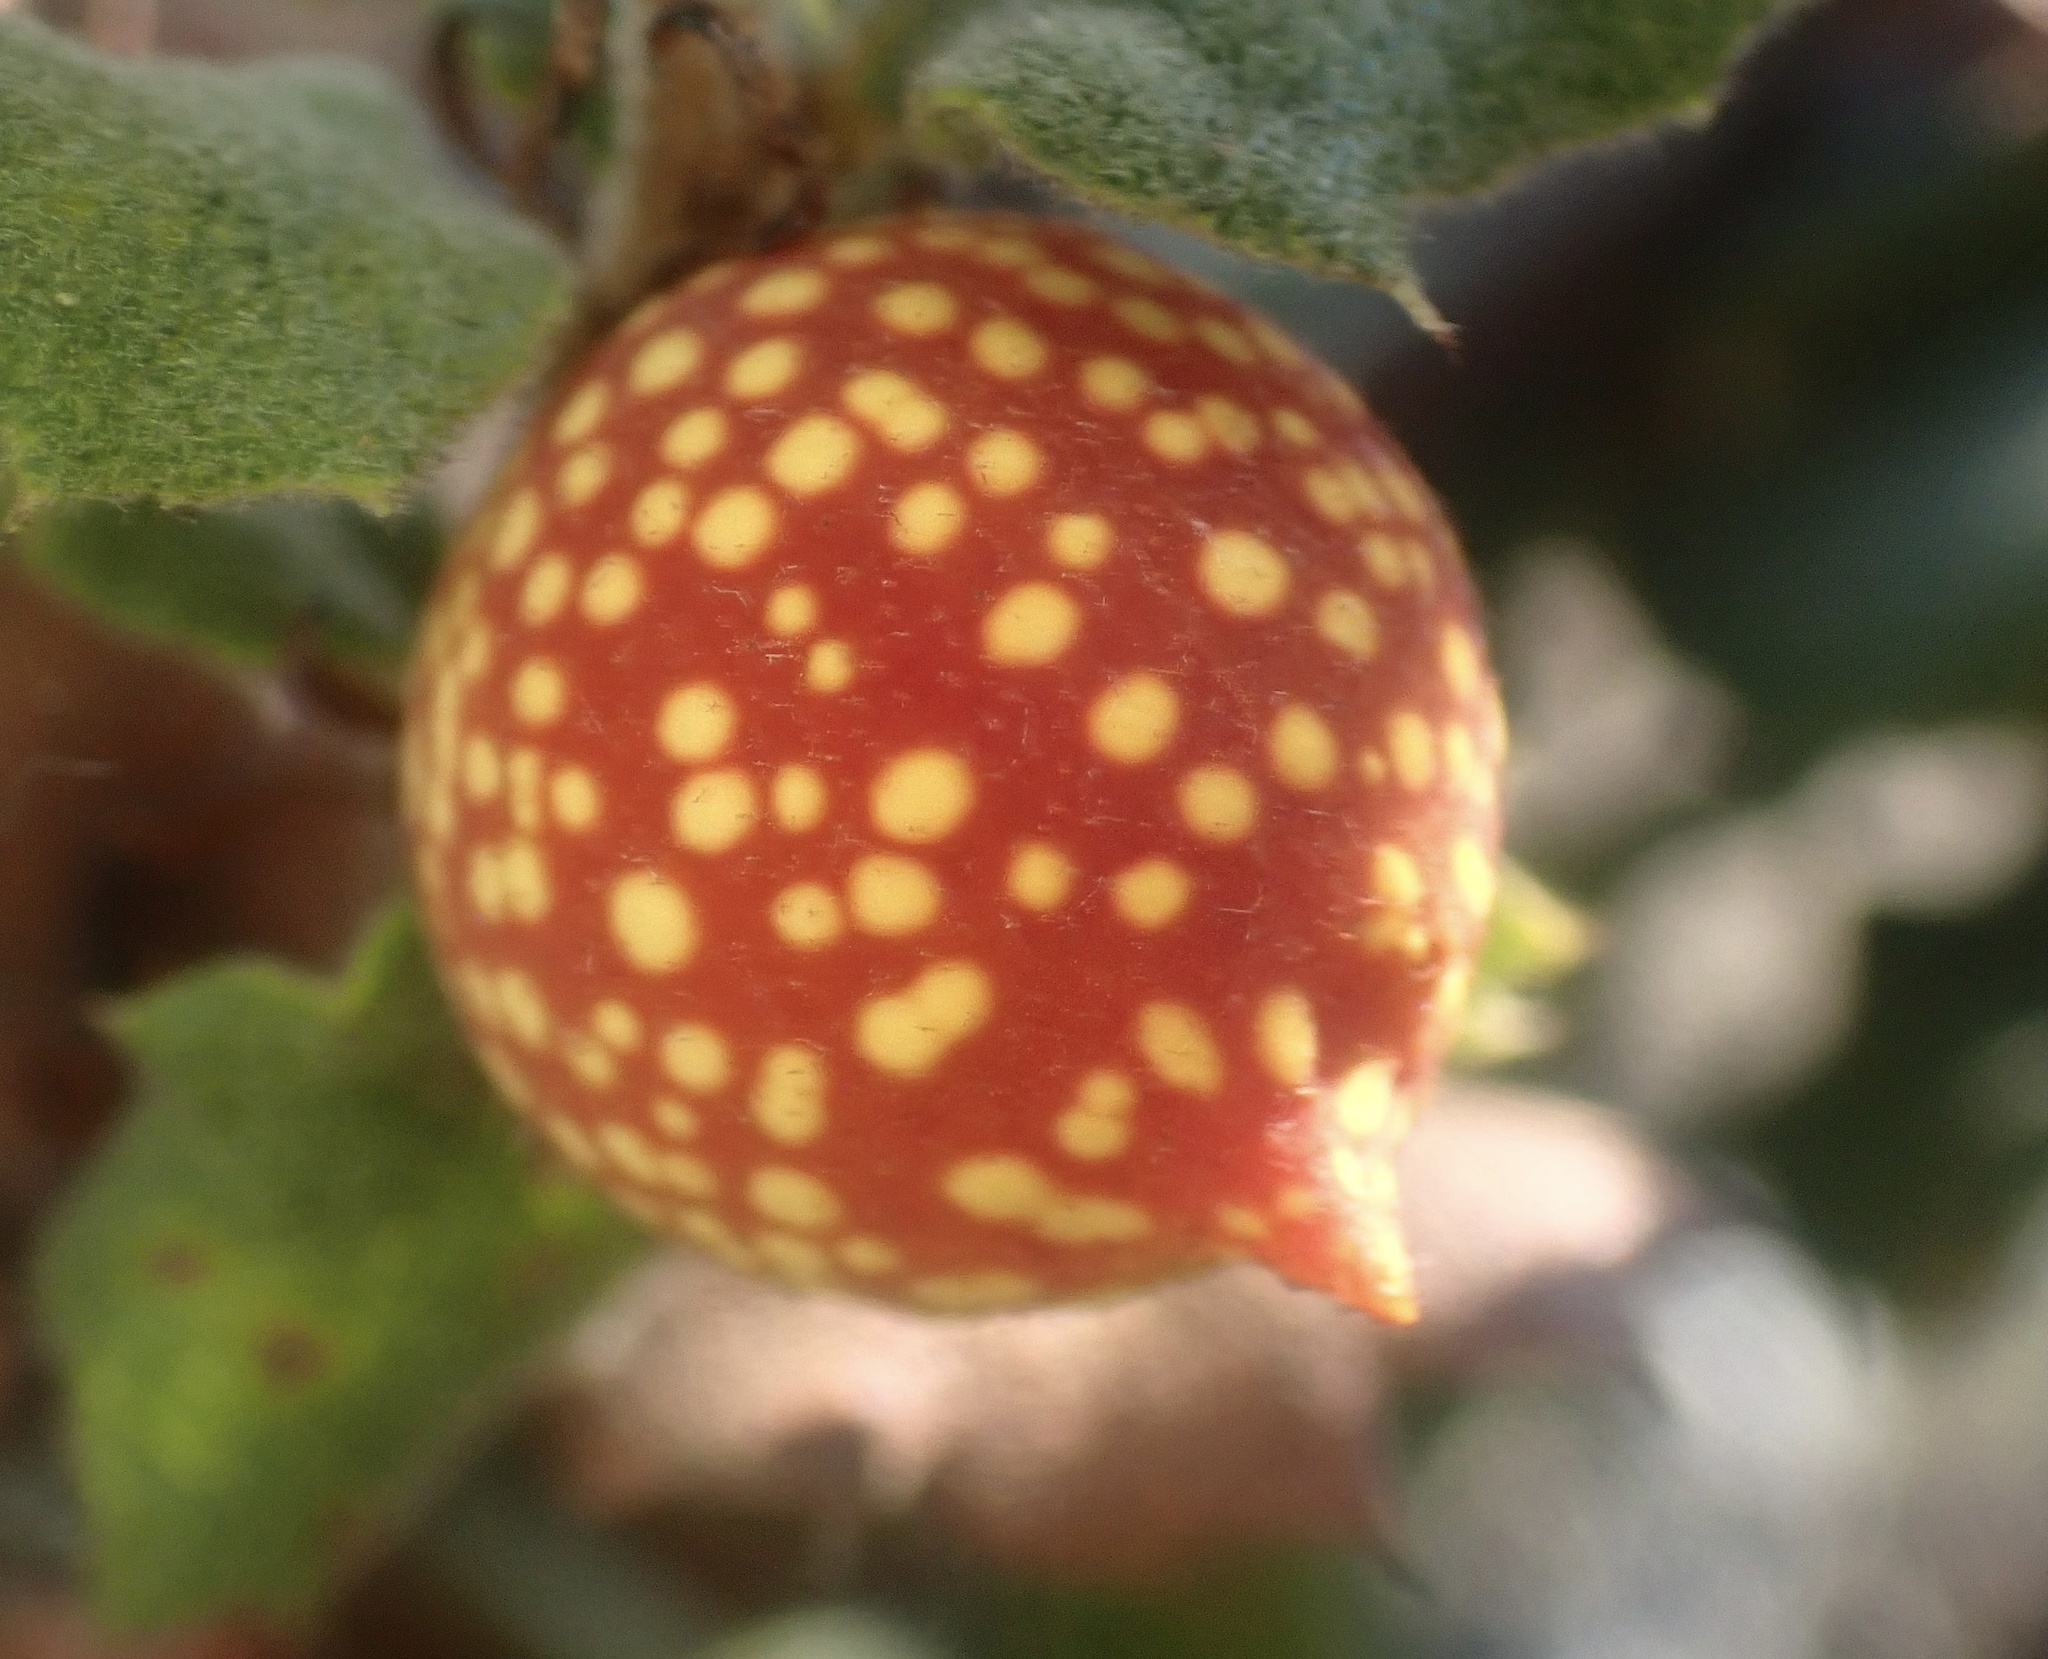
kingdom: Animalia
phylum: Arthropoda
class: Insecta
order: Hymenoptera
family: Cynipidae
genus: Burnettweldia
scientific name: Burnettweldia
